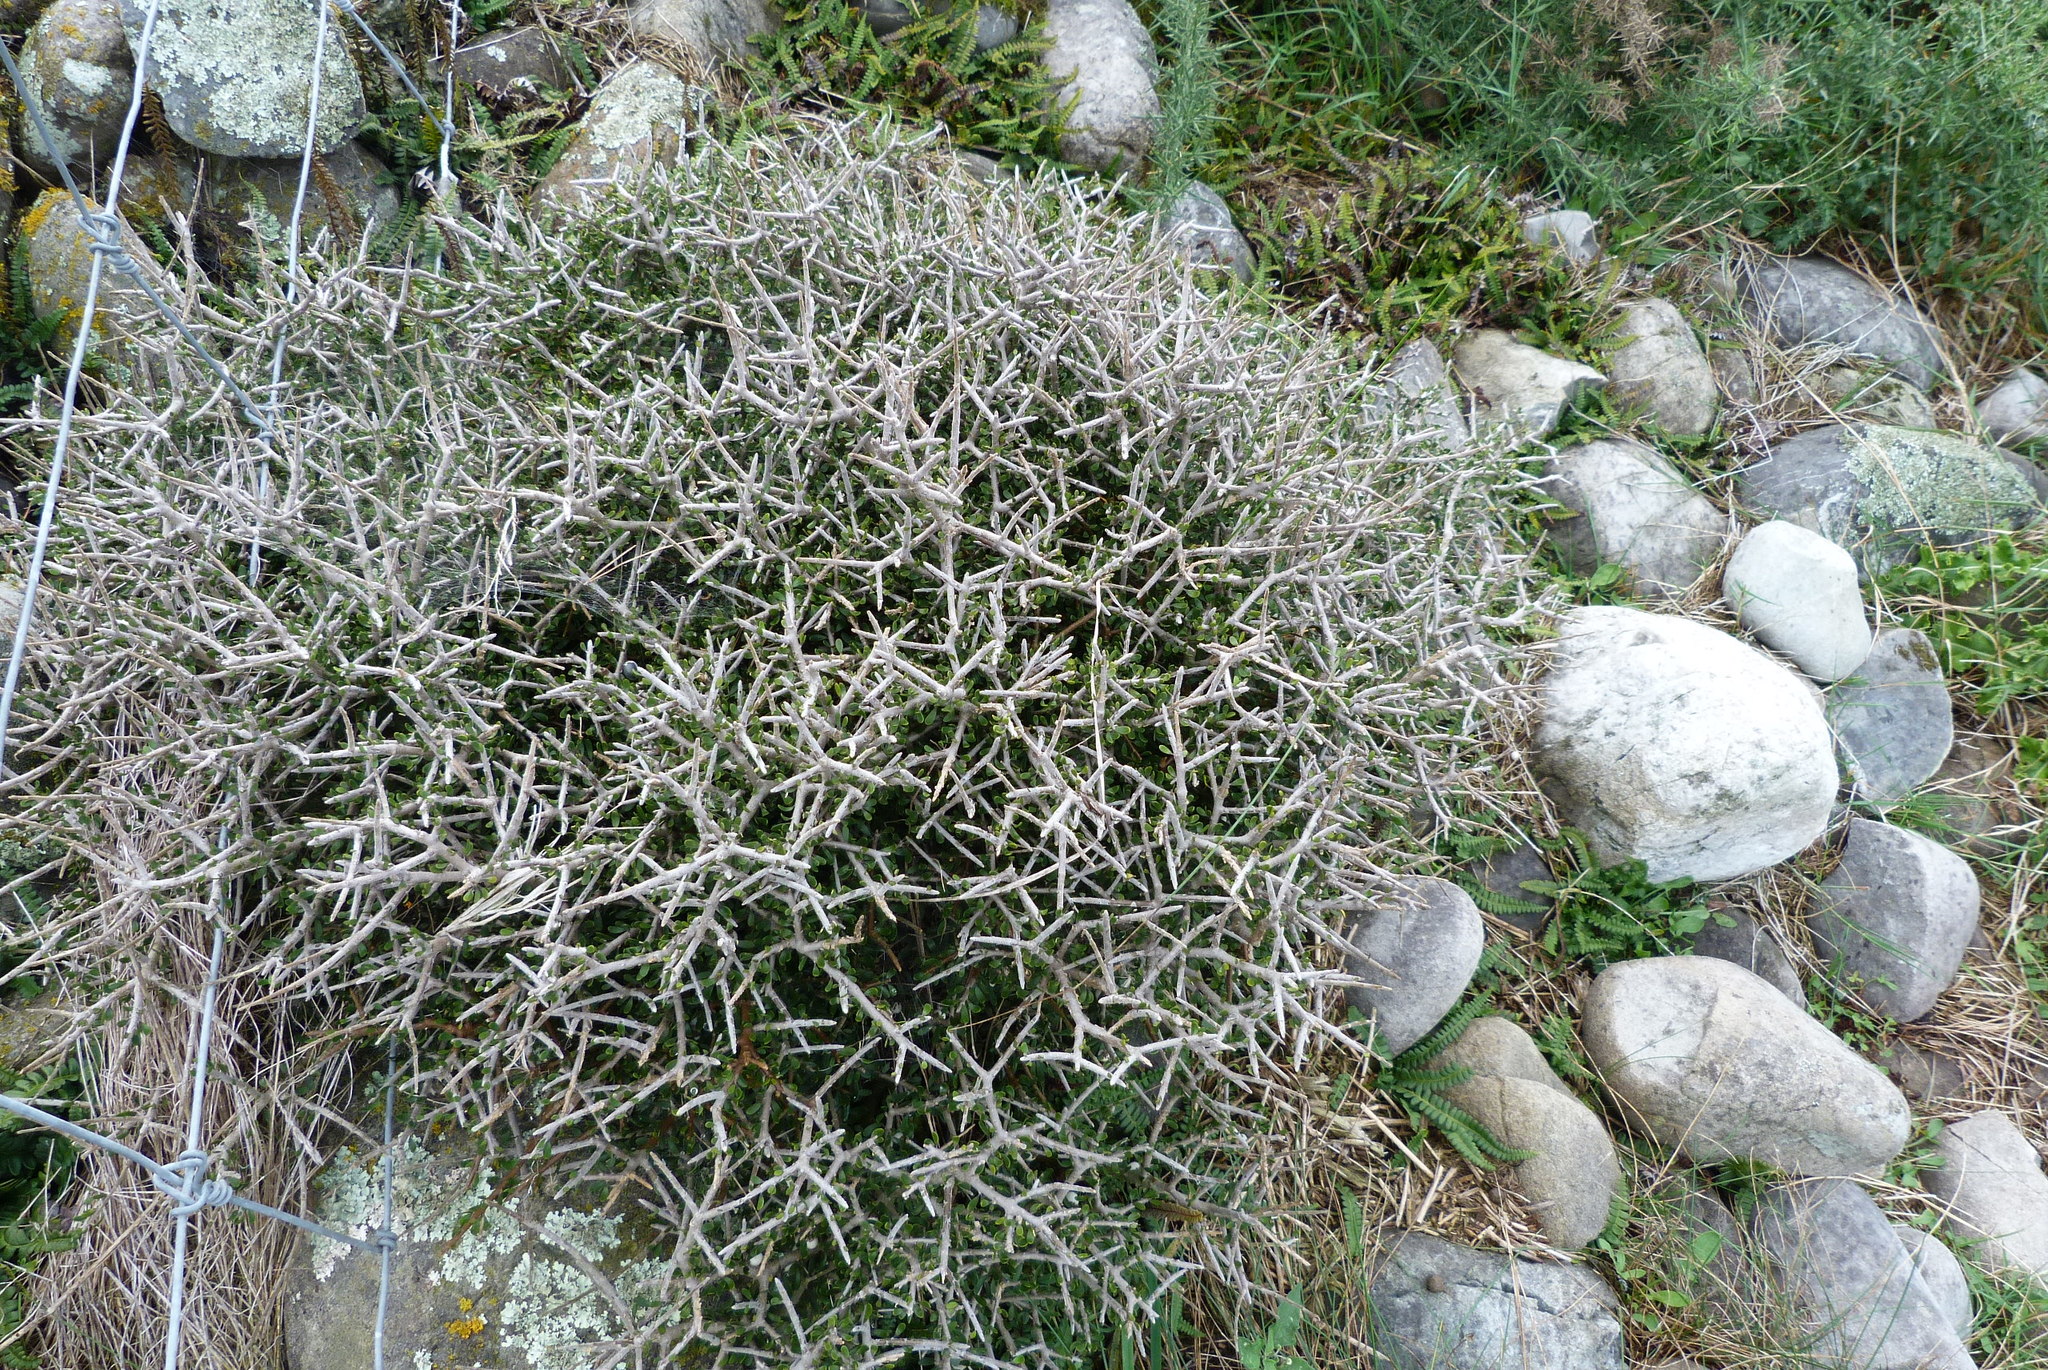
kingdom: Plantae
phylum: Tracheophyta
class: Magnoliopsida
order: Malpighiales
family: Violaceae
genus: Melicytus
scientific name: Melicytus alpinus
